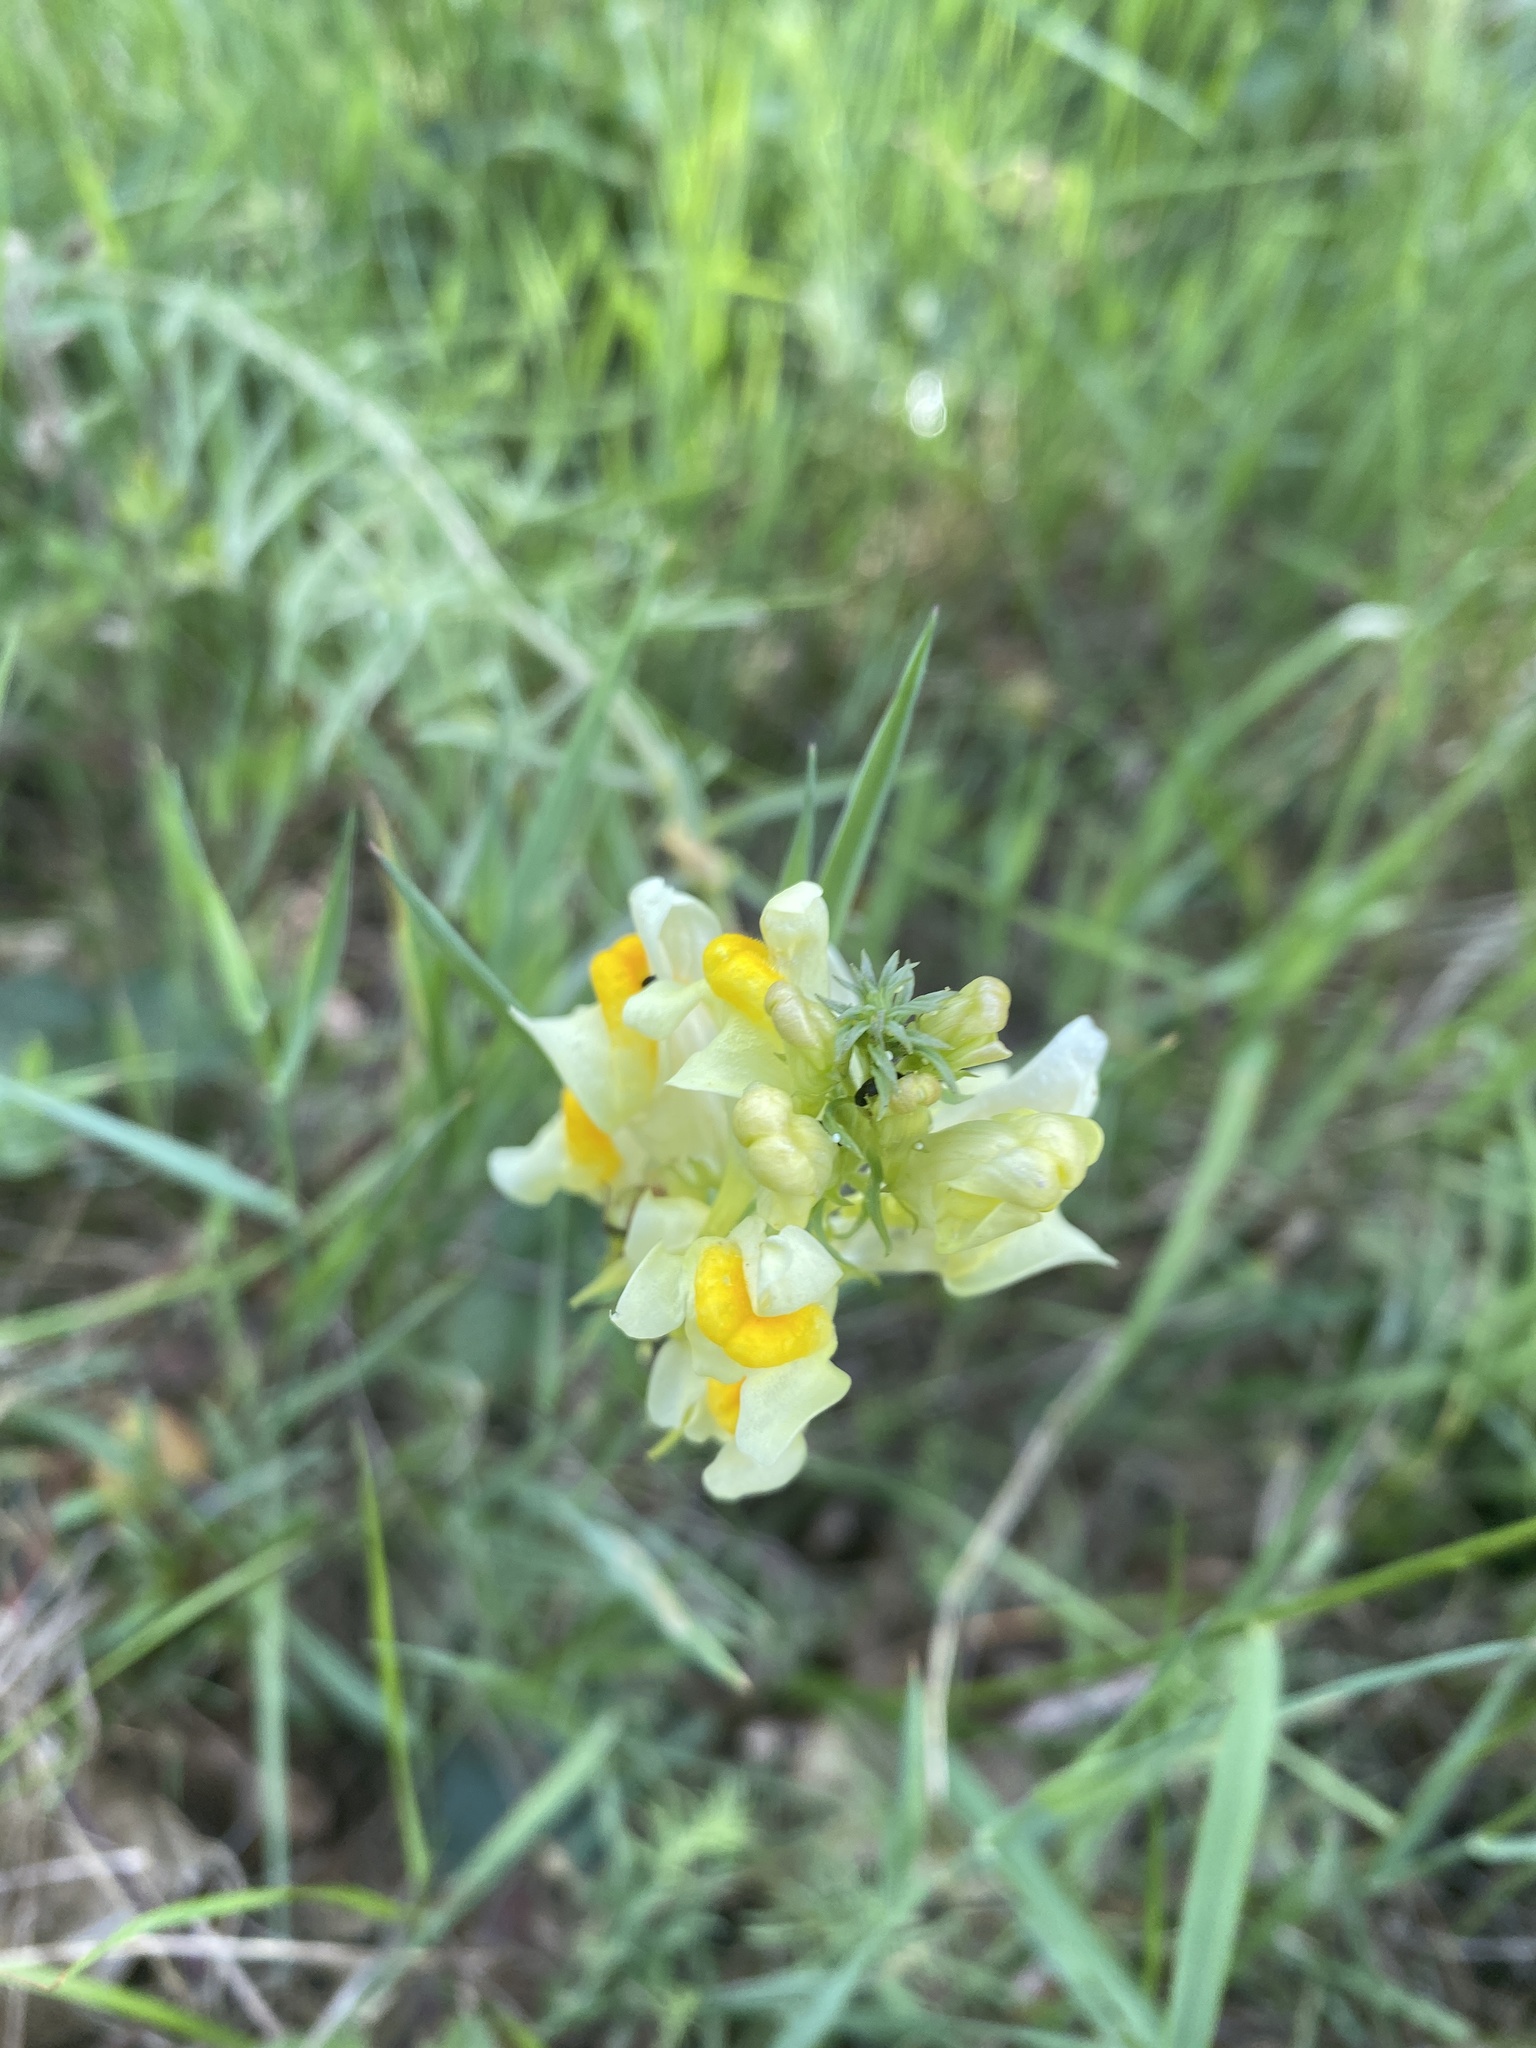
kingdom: Plantae
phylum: Tracheophyta
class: Magnoliopsida
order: Lamiales
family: Plantaginaceae
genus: Linaria
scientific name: Linaria vulgaris
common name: Butter and eggs
